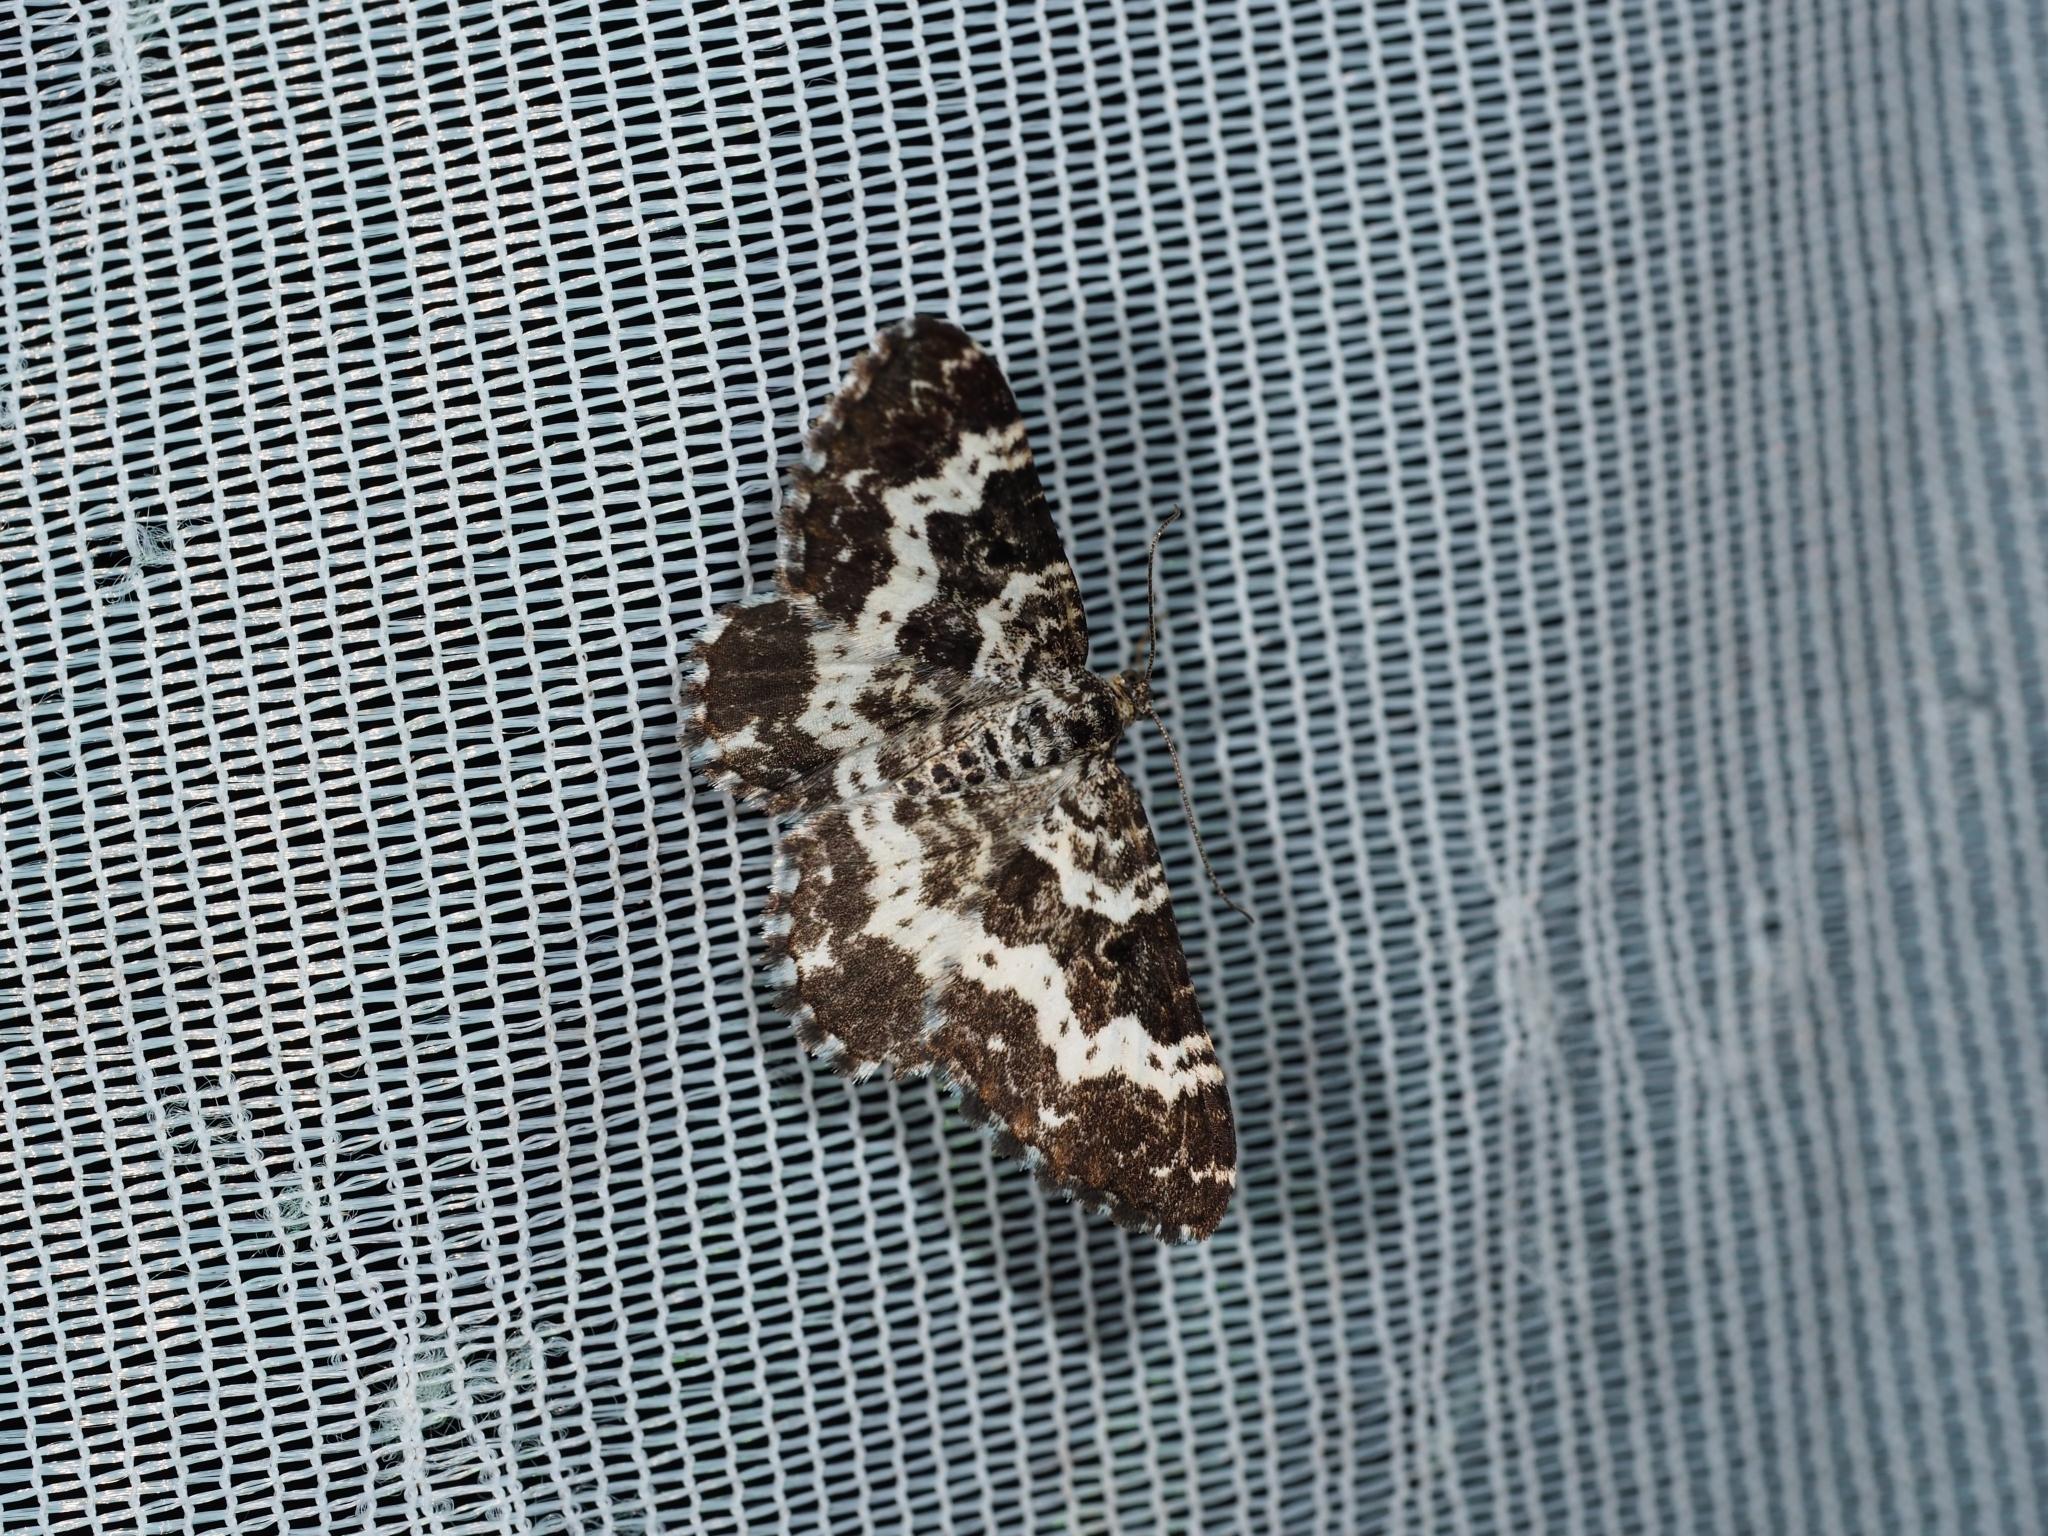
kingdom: Animalia
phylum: Arthropoda
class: Insecta
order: Lepidoptera
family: Geometridae
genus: Epirrhoe
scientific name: Epirrhoe tristata
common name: Small argent & sable
